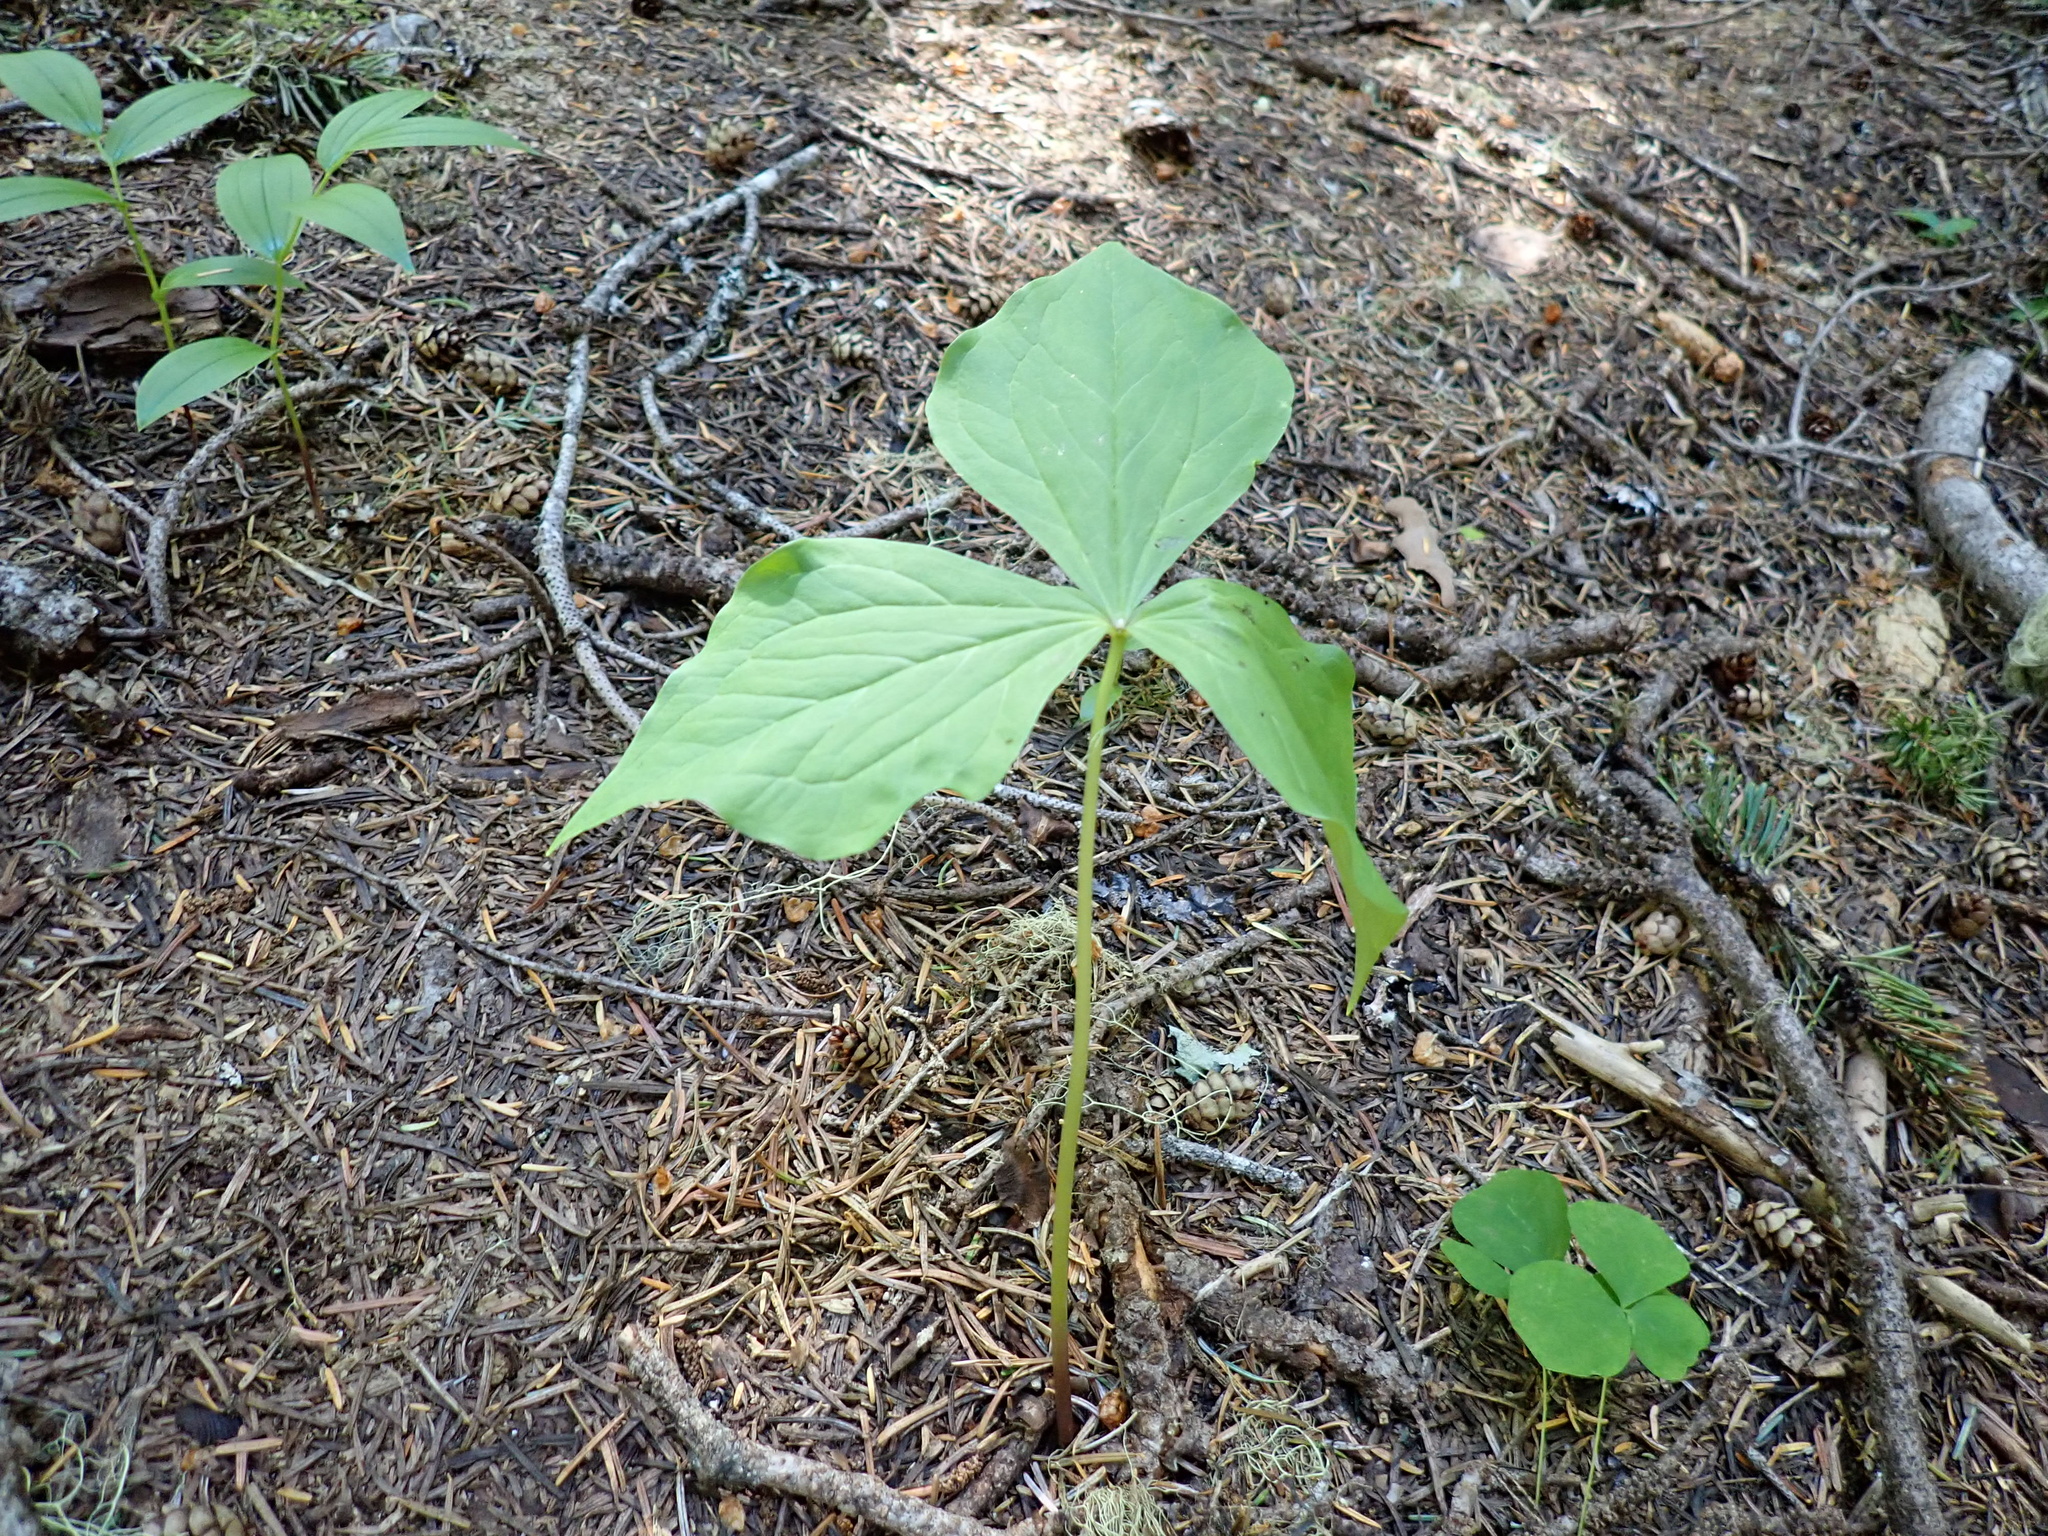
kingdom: Plantae
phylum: Tracheophyta
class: Liliopsida
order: Liliales
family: Melanthiaceae
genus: Trillium
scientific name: Trillium ovatum
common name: Pacific trillium
